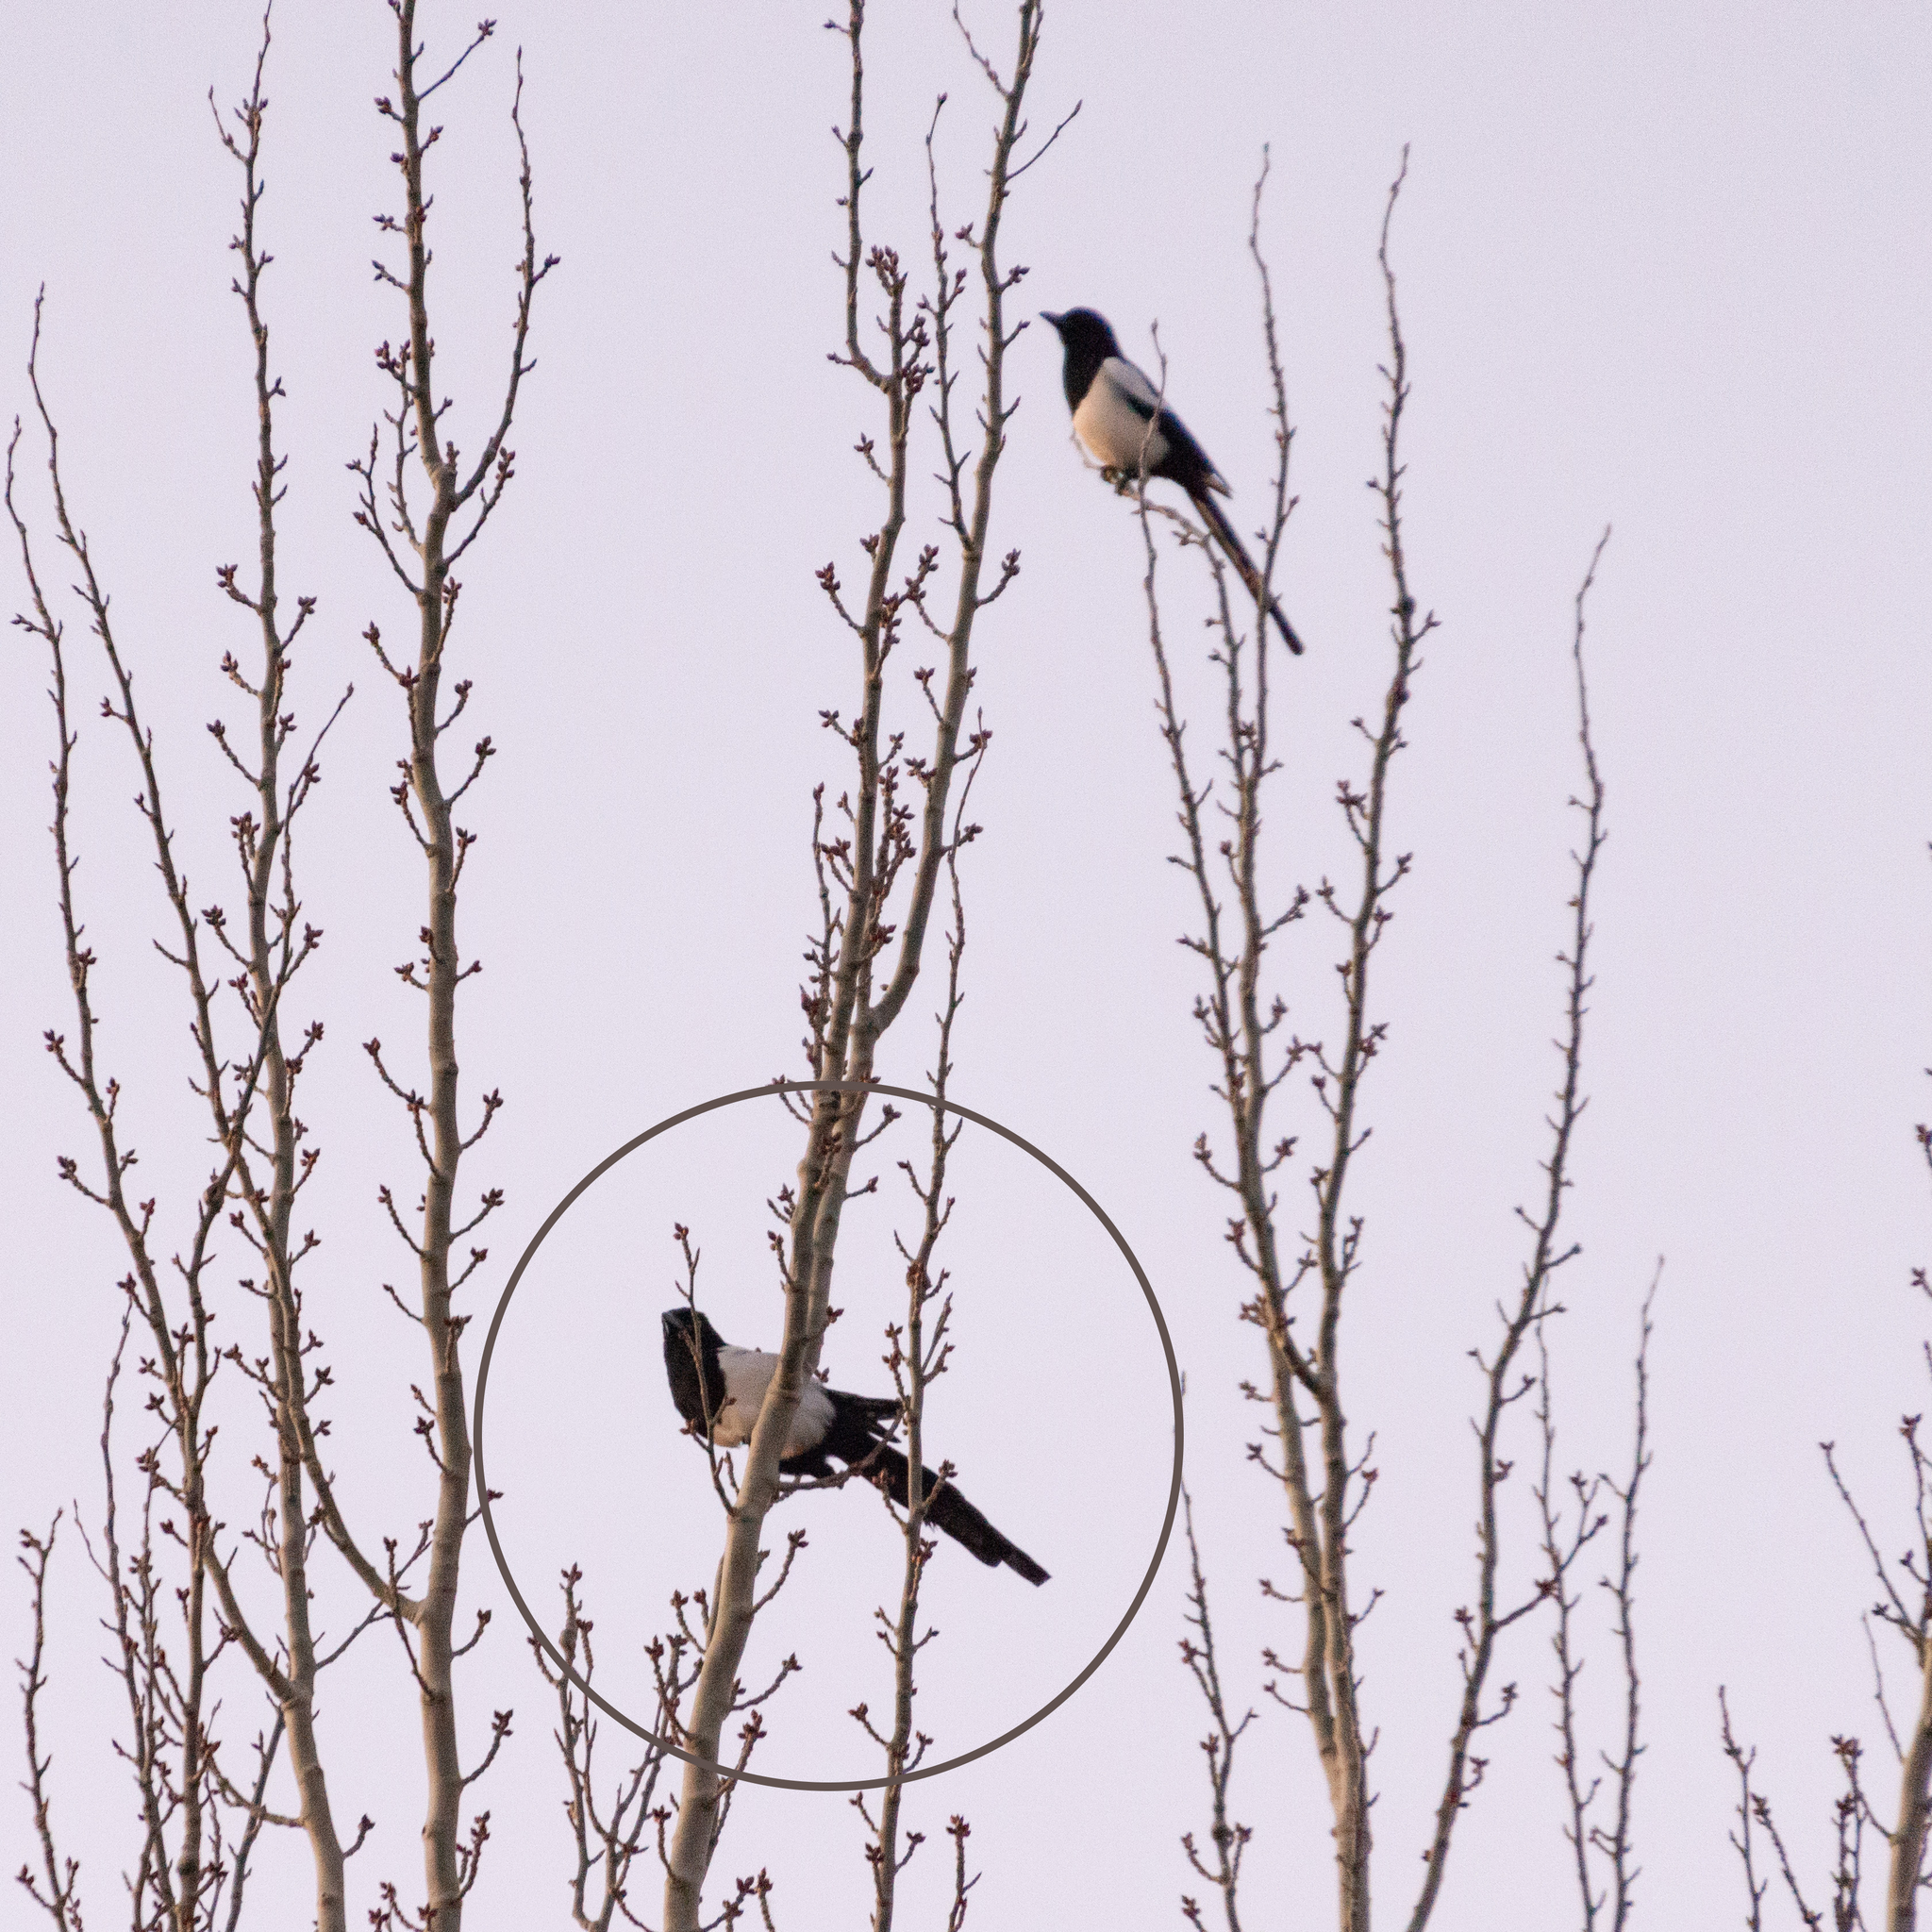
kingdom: Animalia
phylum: Chordata
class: Aves
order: Passeriformes
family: Corvidae
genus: Pica
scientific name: Pica pica
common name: Eurasian magpie
